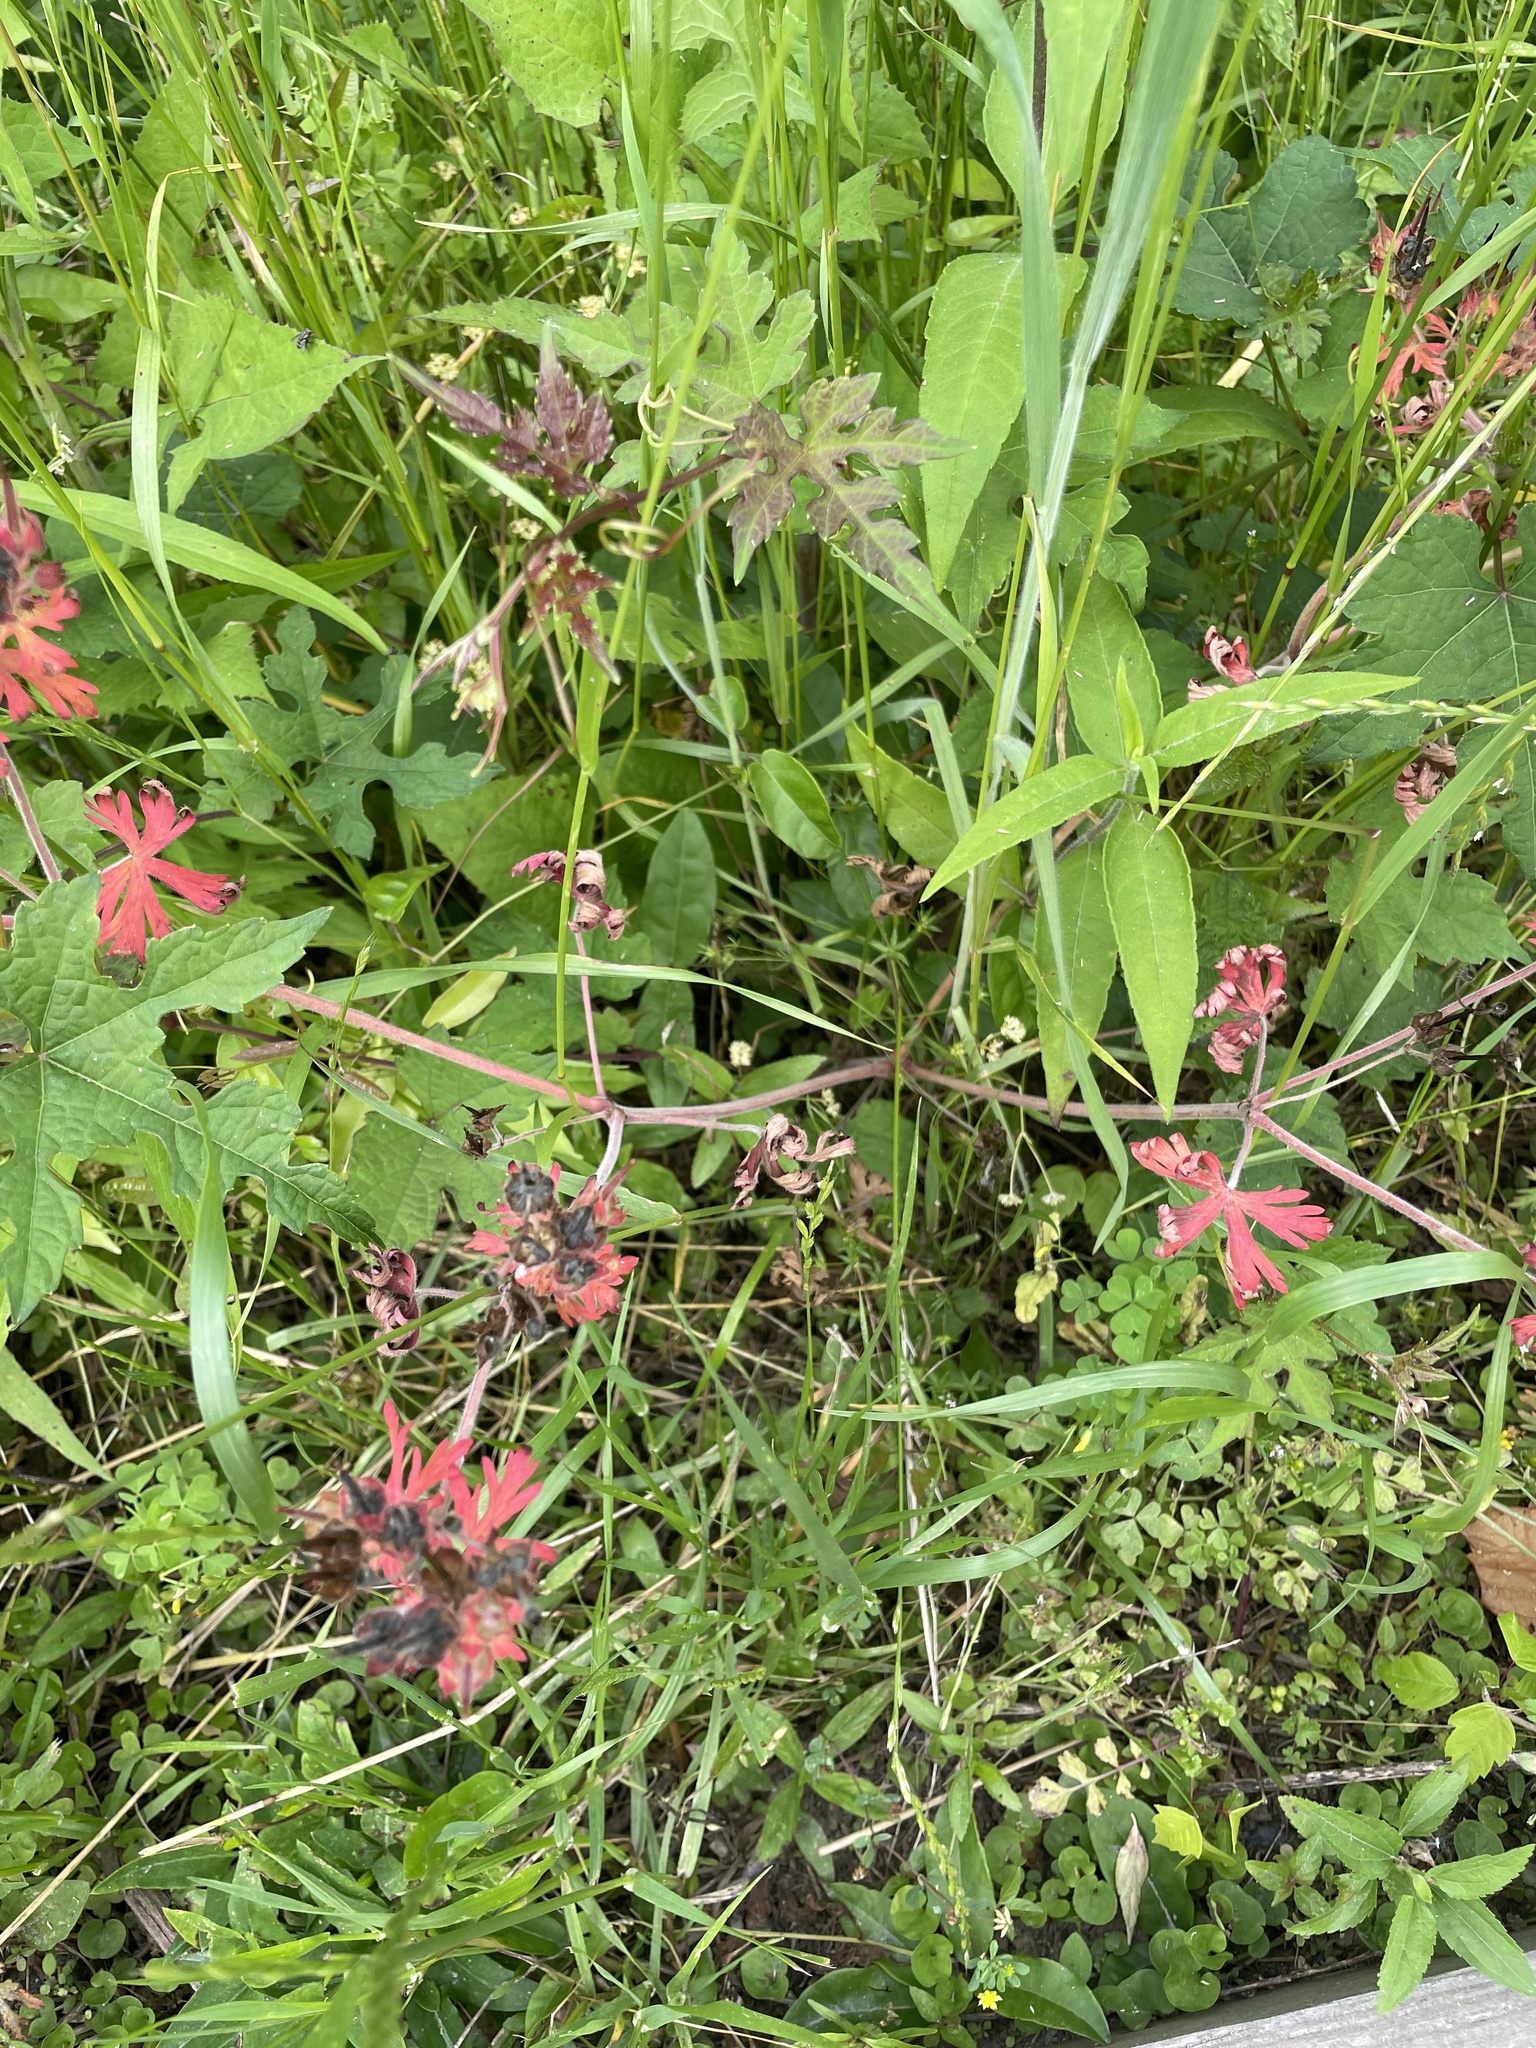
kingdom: Plantae
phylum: Tracheophyta
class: Magnoliopsida
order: Geraniales
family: Geraniaceae
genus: Geranium
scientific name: Geranium carolinianum
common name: Carolina crane's-bill
